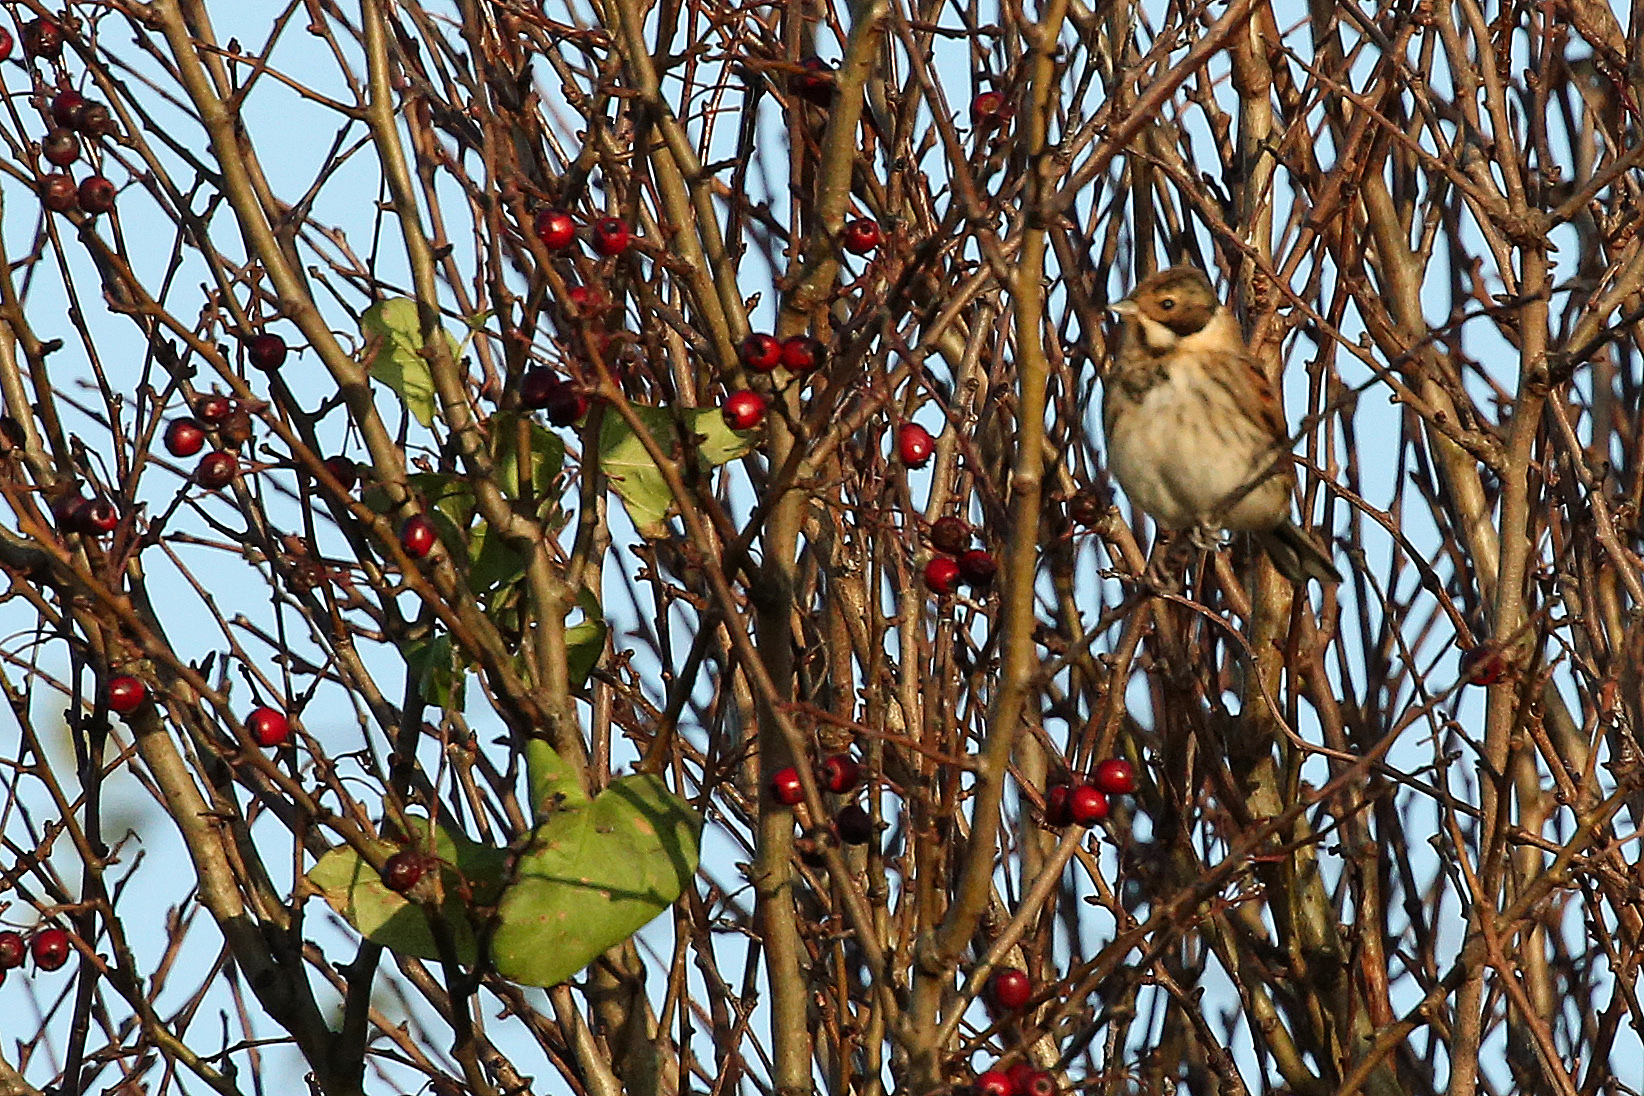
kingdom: Animalia
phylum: Chordata
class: Aves
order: Passeriformes
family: Emberizidae
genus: Emberiza
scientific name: Emberiza schoeniclus
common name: Reed bunting
